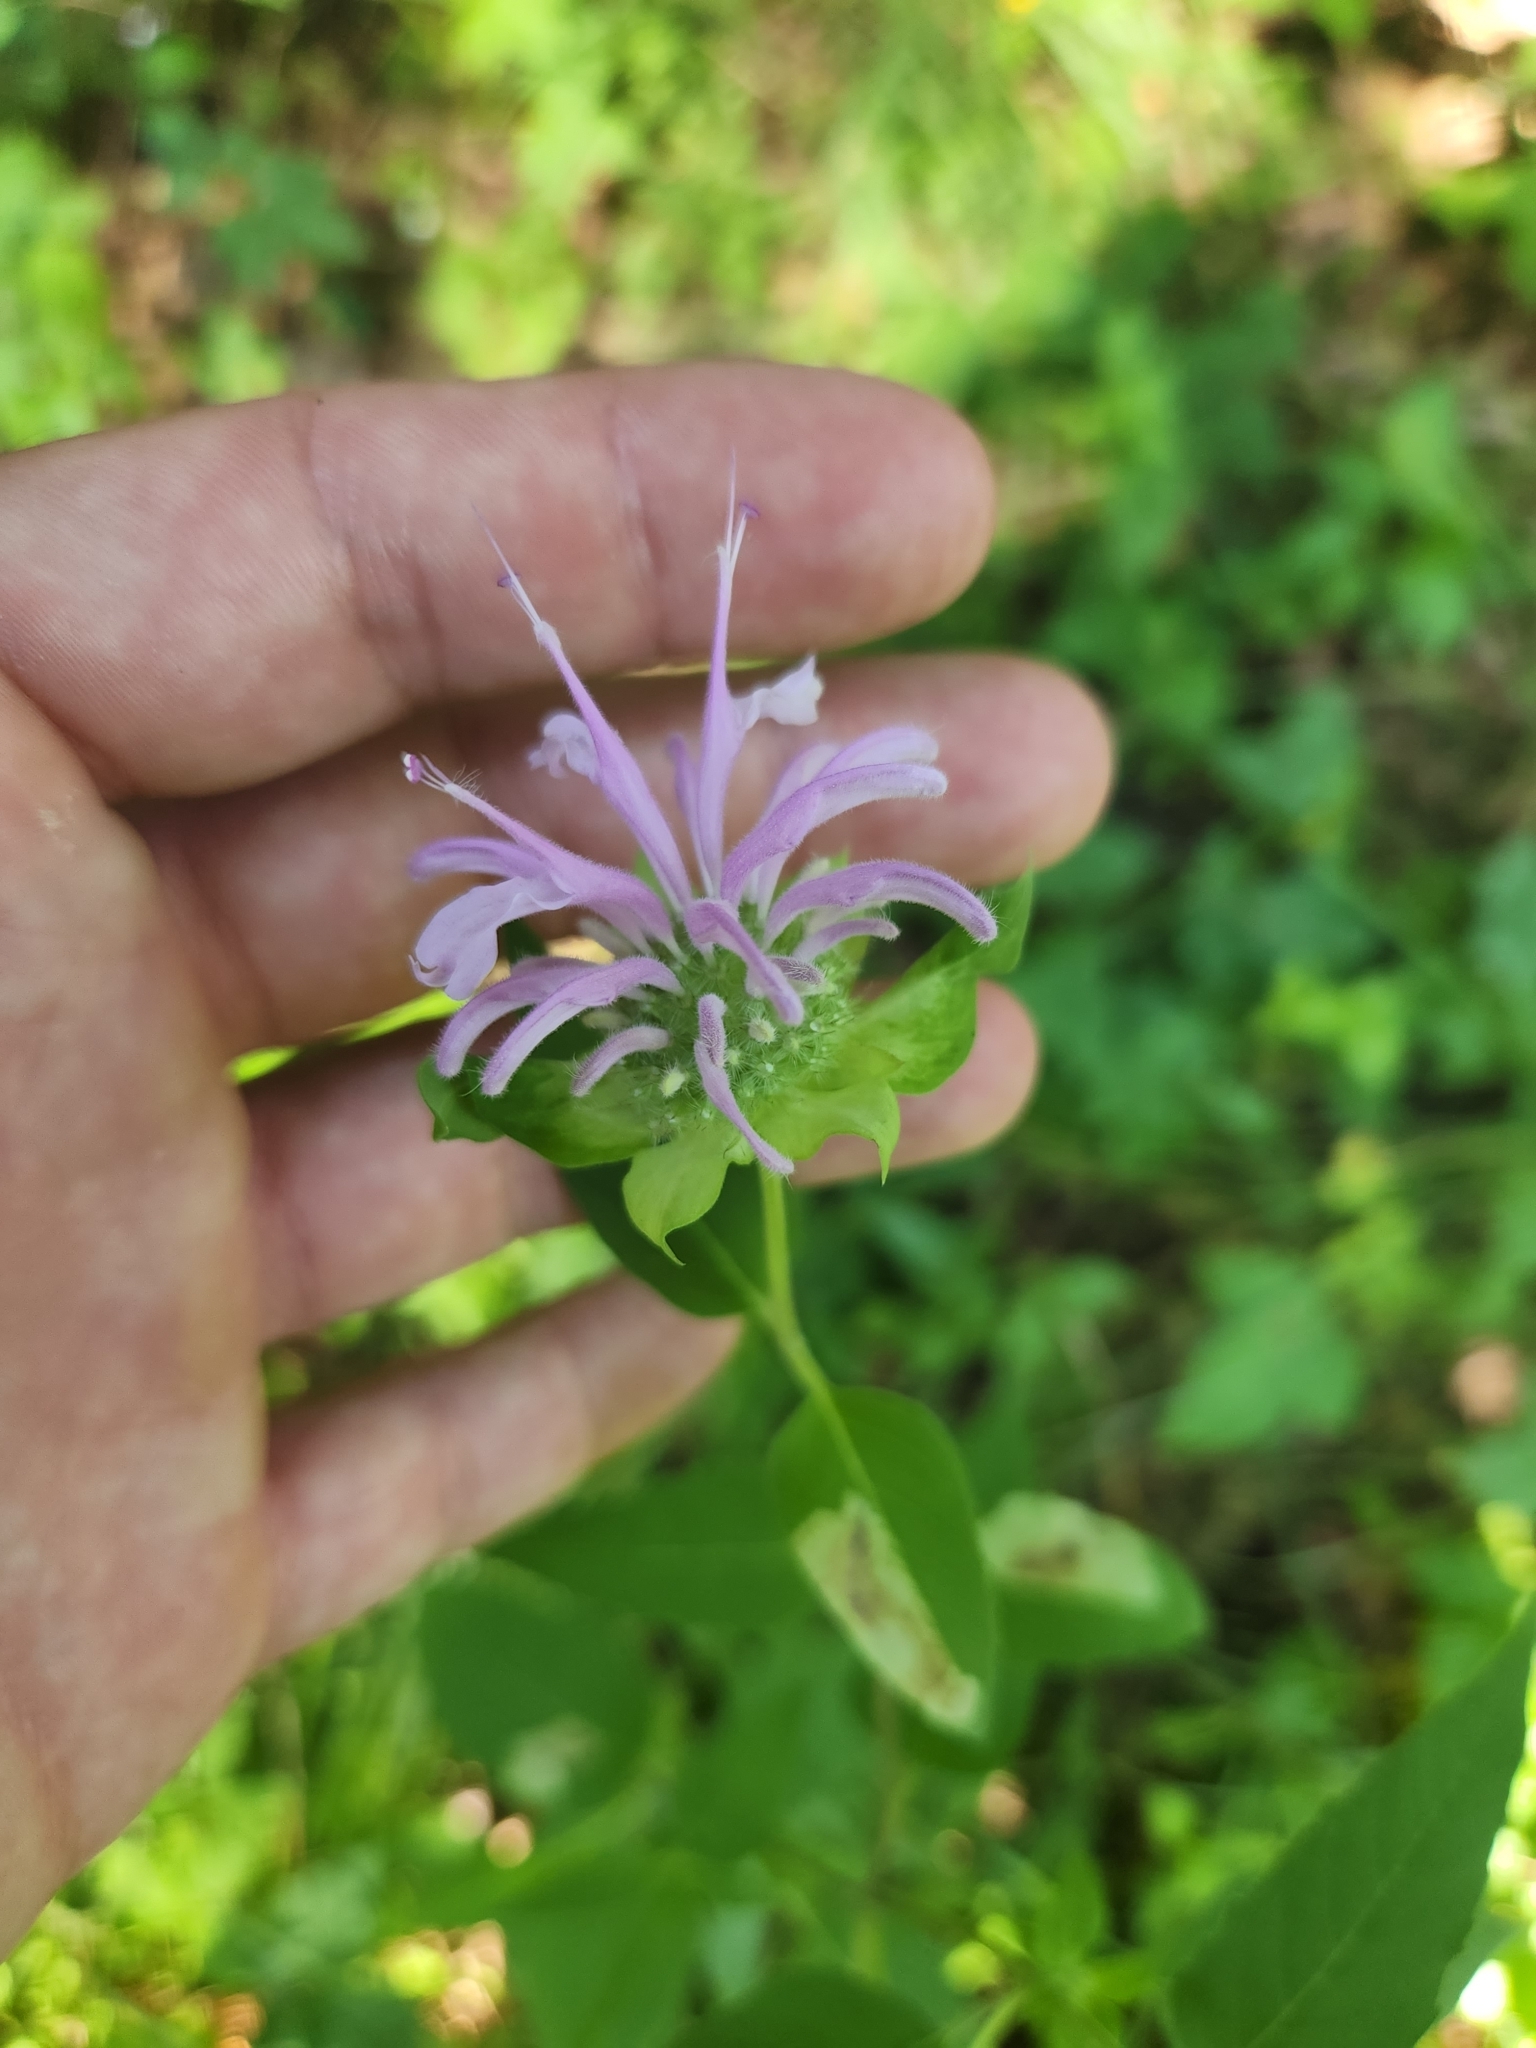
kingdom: Plantae
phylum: Tracheophyta
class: Magnoliopsida
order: Lamiales
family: Lamiaceae
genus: Monarda
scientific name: Monarda fistulosa
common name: Purple beebalm
